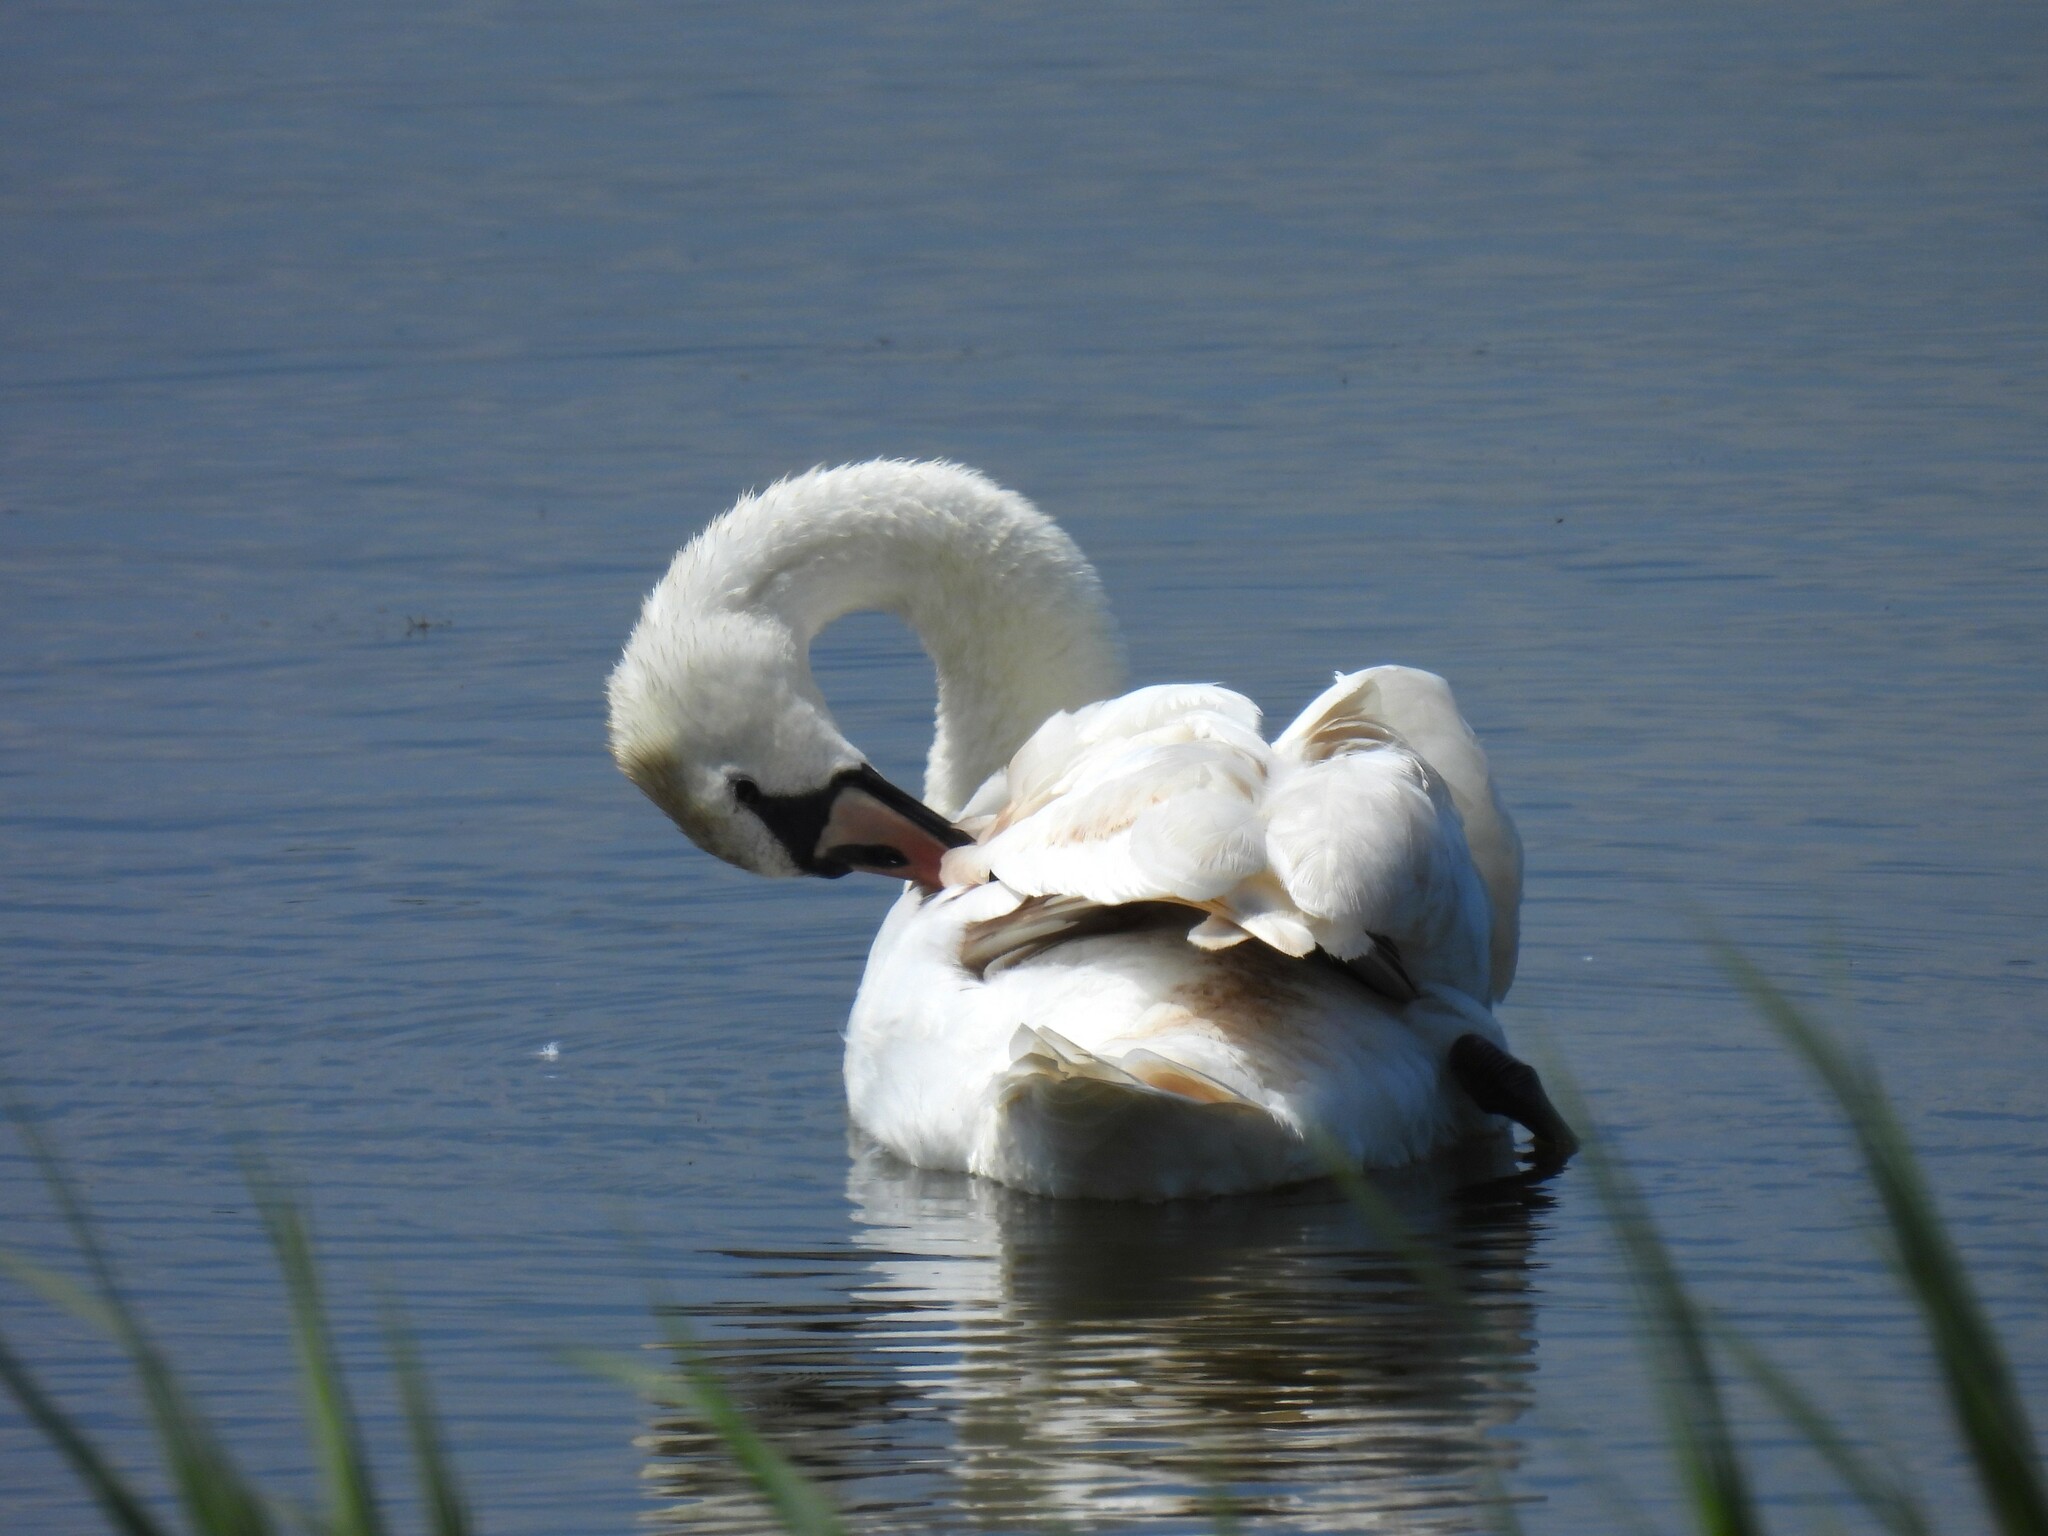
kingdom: Animalia
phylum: Chordata
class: Aves
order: Anseriformes
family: Anatidae
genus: Cygnus
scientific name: Cygnus olor
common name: Mute swan
